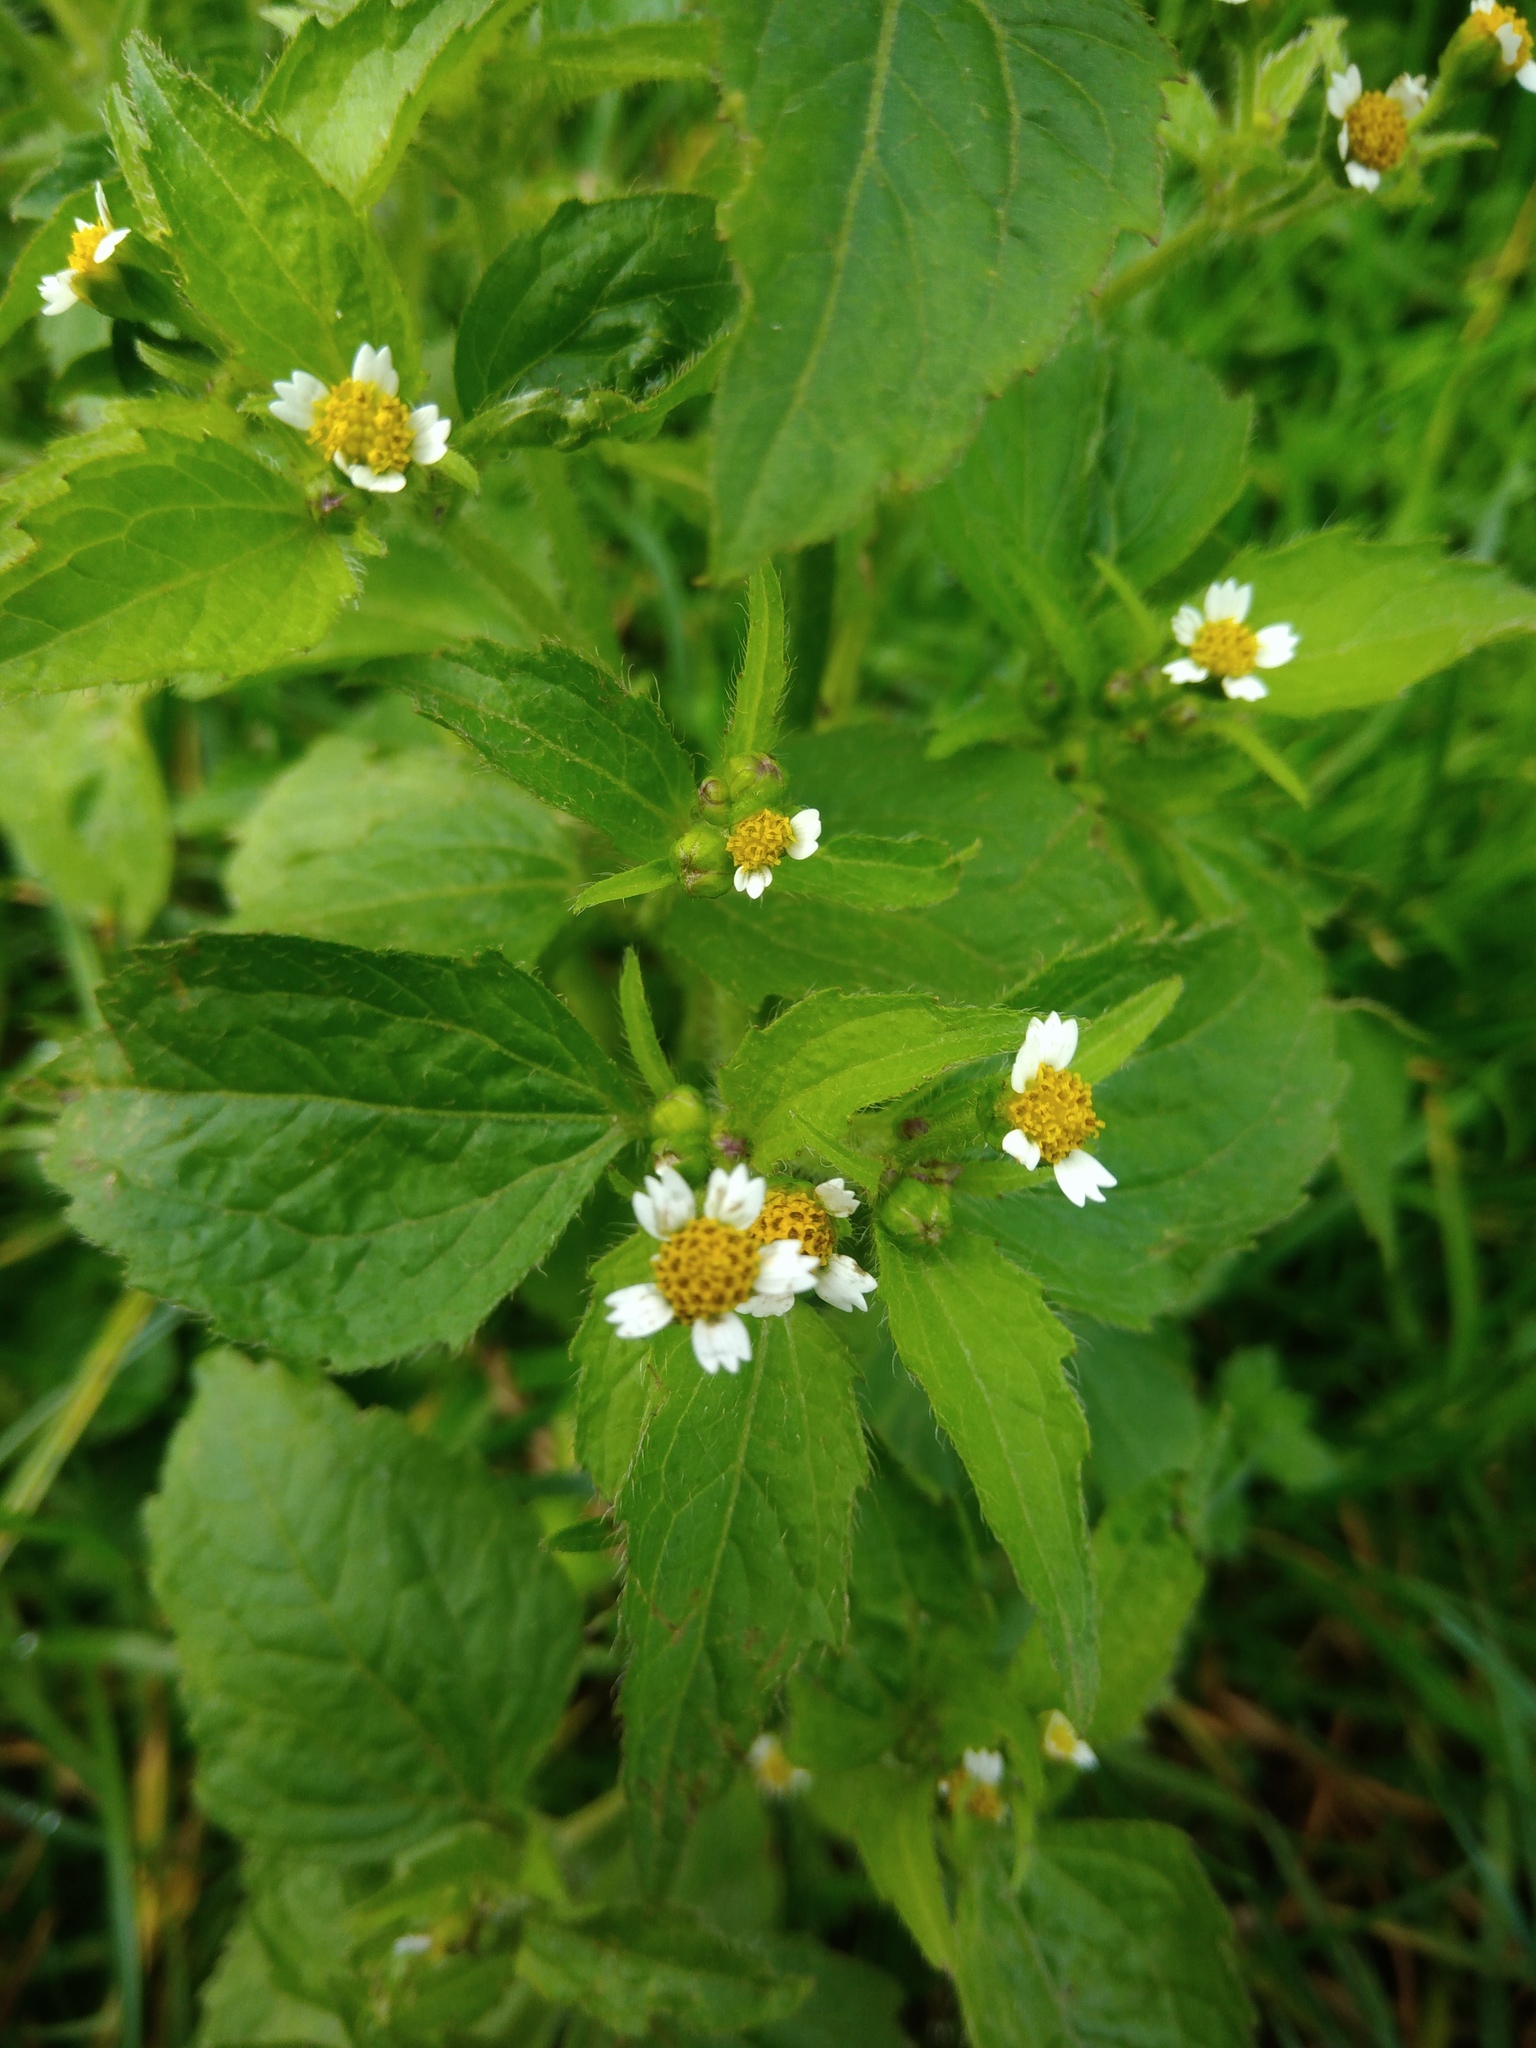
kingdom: Plantae
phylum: Tracheophyta
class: Magnoliopsida
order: Asterales
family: Asteraceae
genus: Galinsoga
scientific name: Galinsoga quadriradiata
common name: Shaggy soldier
